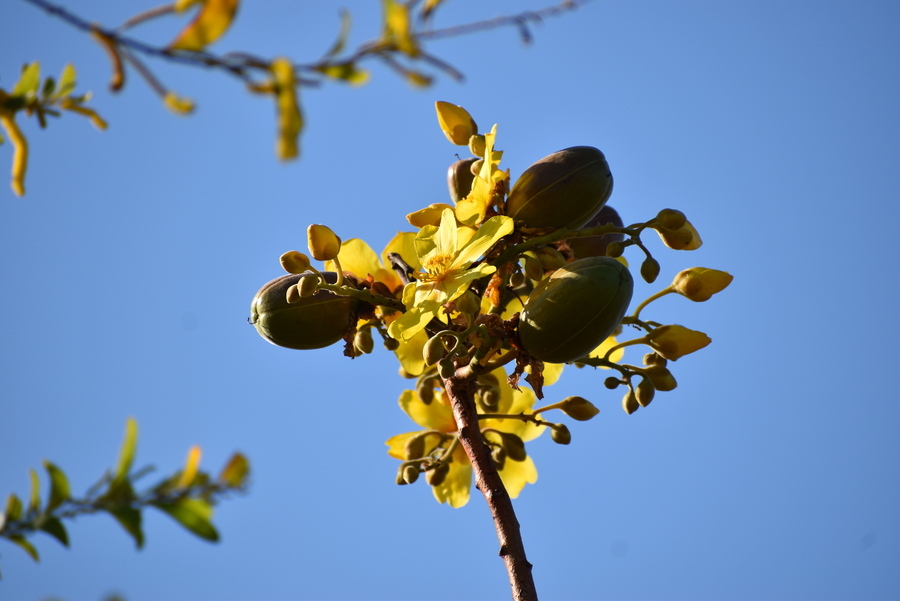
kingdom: Plantae
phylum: Tracheophyta
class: Magnoliopsida
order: Malvales
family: Cochlospermaceae
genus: Cochlospermum
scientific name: Cochlospermum fraseri
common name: Kapokbush
